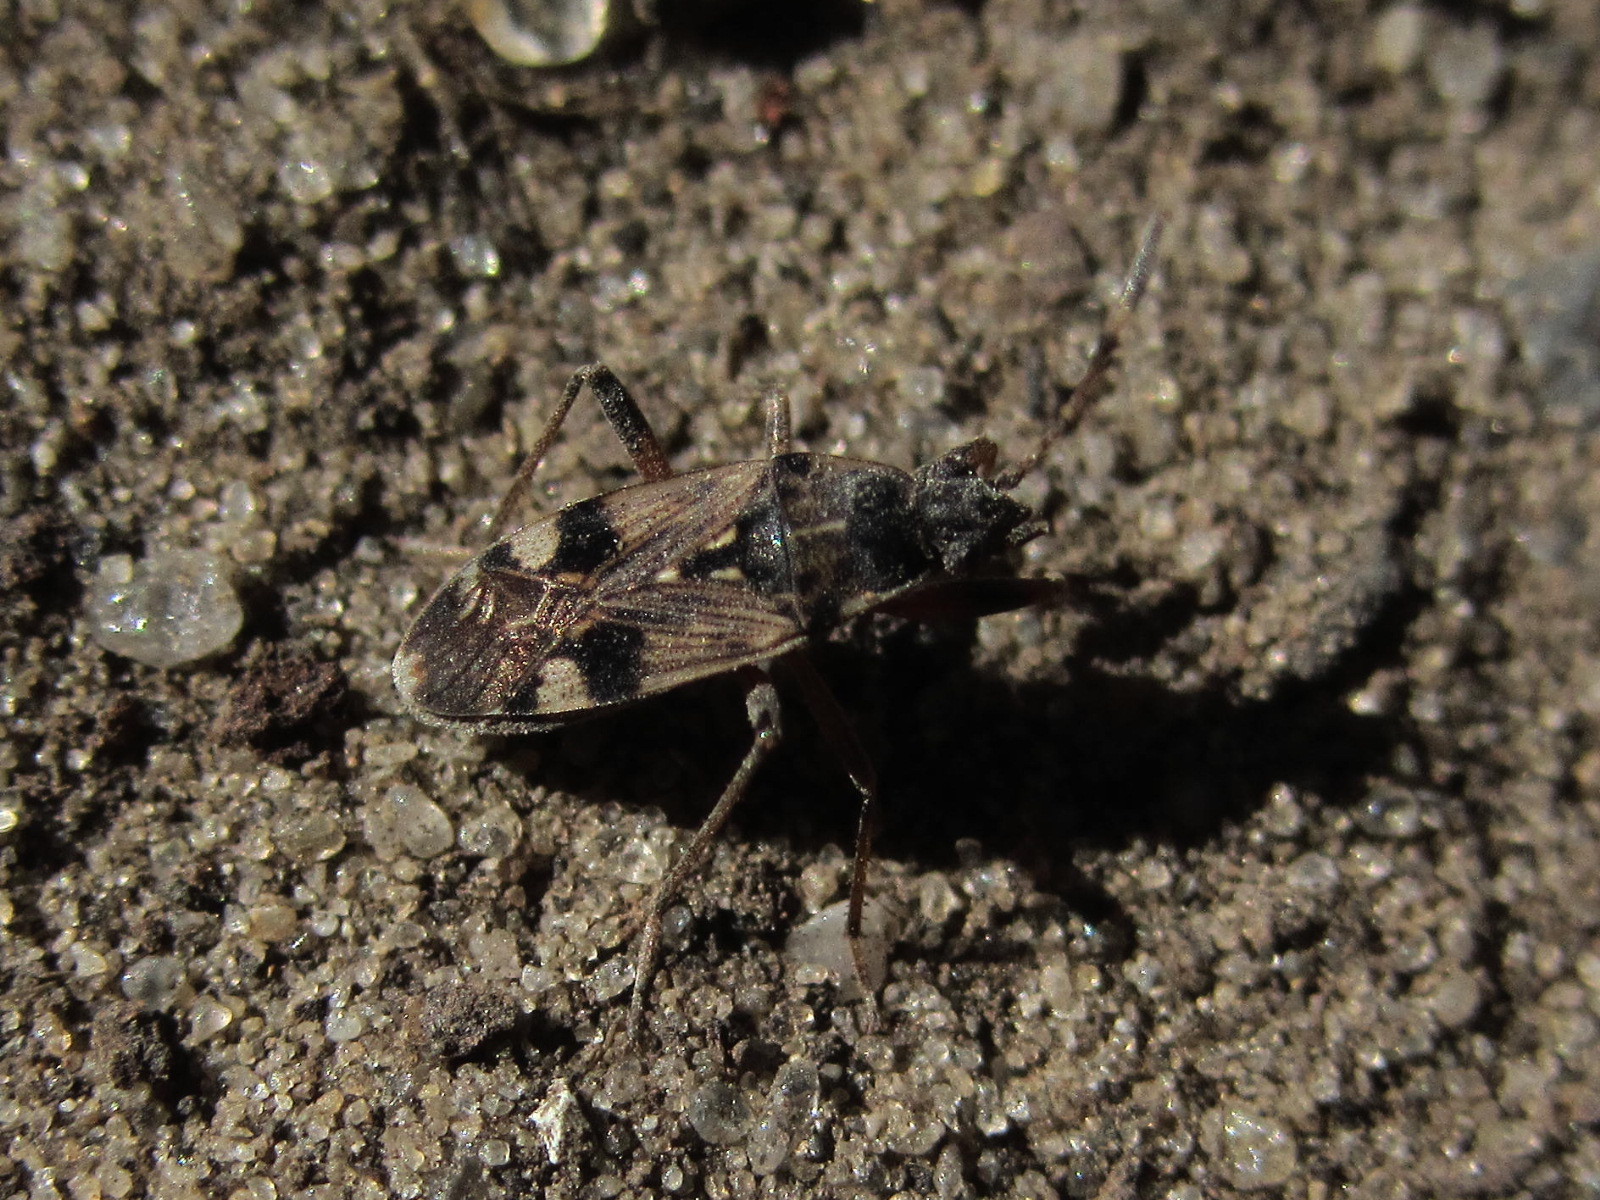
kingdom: Animalia
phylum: Arthropoda
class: Insecta
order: Hemiptera
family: Rhyparochromidae
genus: Beosus
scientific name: Beosus maritimus
